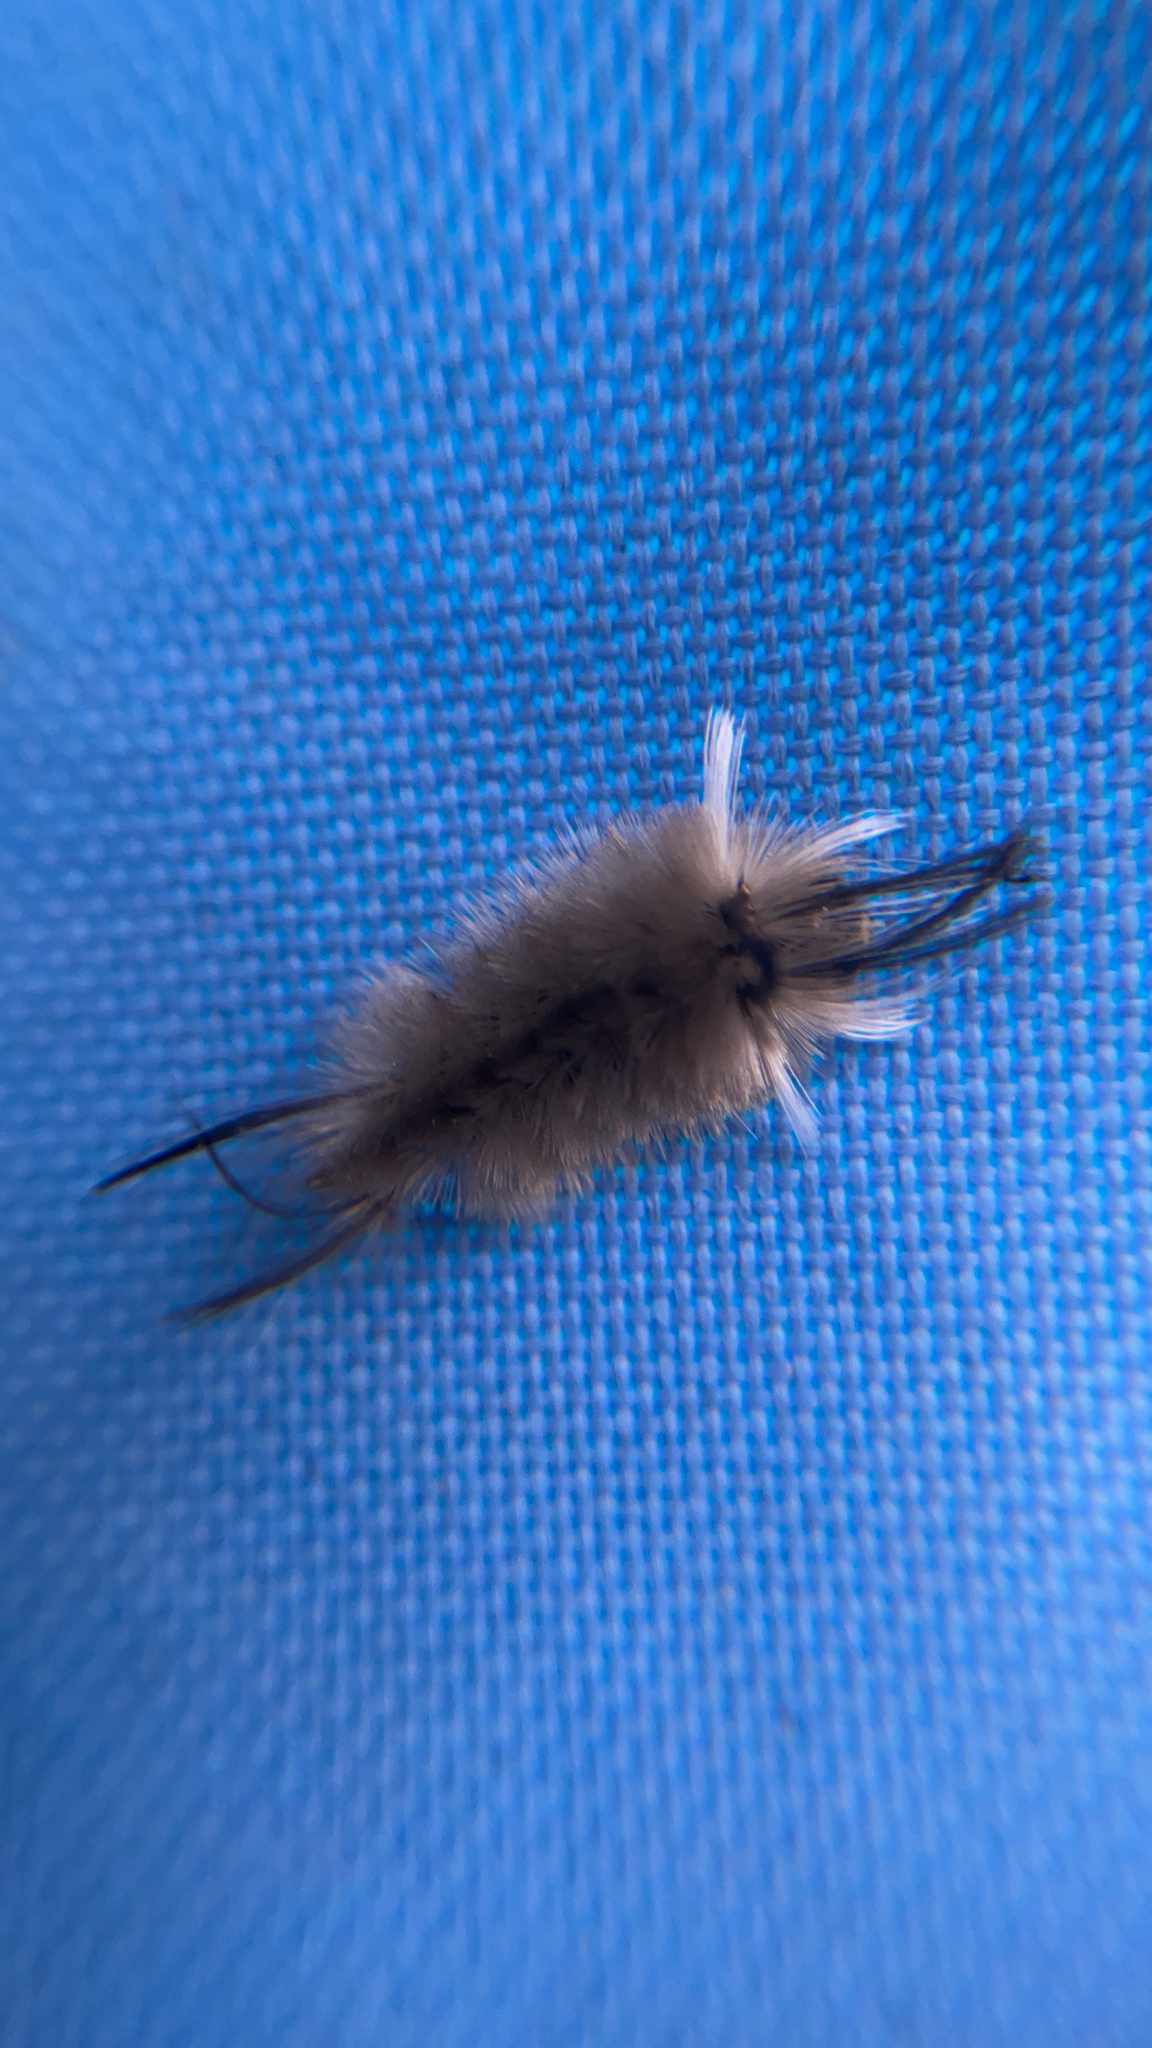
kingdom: Animalia
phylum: Arthropoda
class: Insecta
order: Lepidoptera
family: Erebidae
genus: Halysidota
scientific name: Halysidota tessellaris
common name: Banded tussock moth
